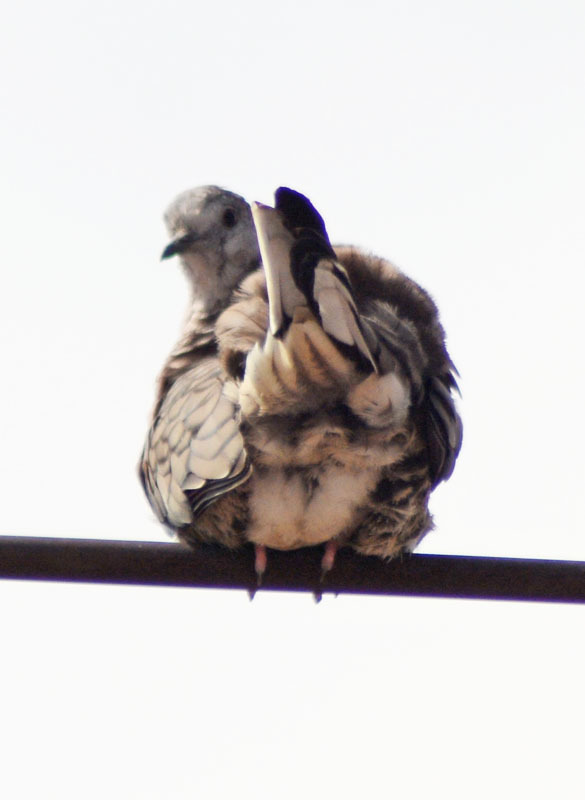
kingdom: Animalia
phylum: Chordata
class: Aves
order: Columbiformes
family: Columbidae
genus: Columbina
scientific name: Columbina inca
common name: Inca dove
